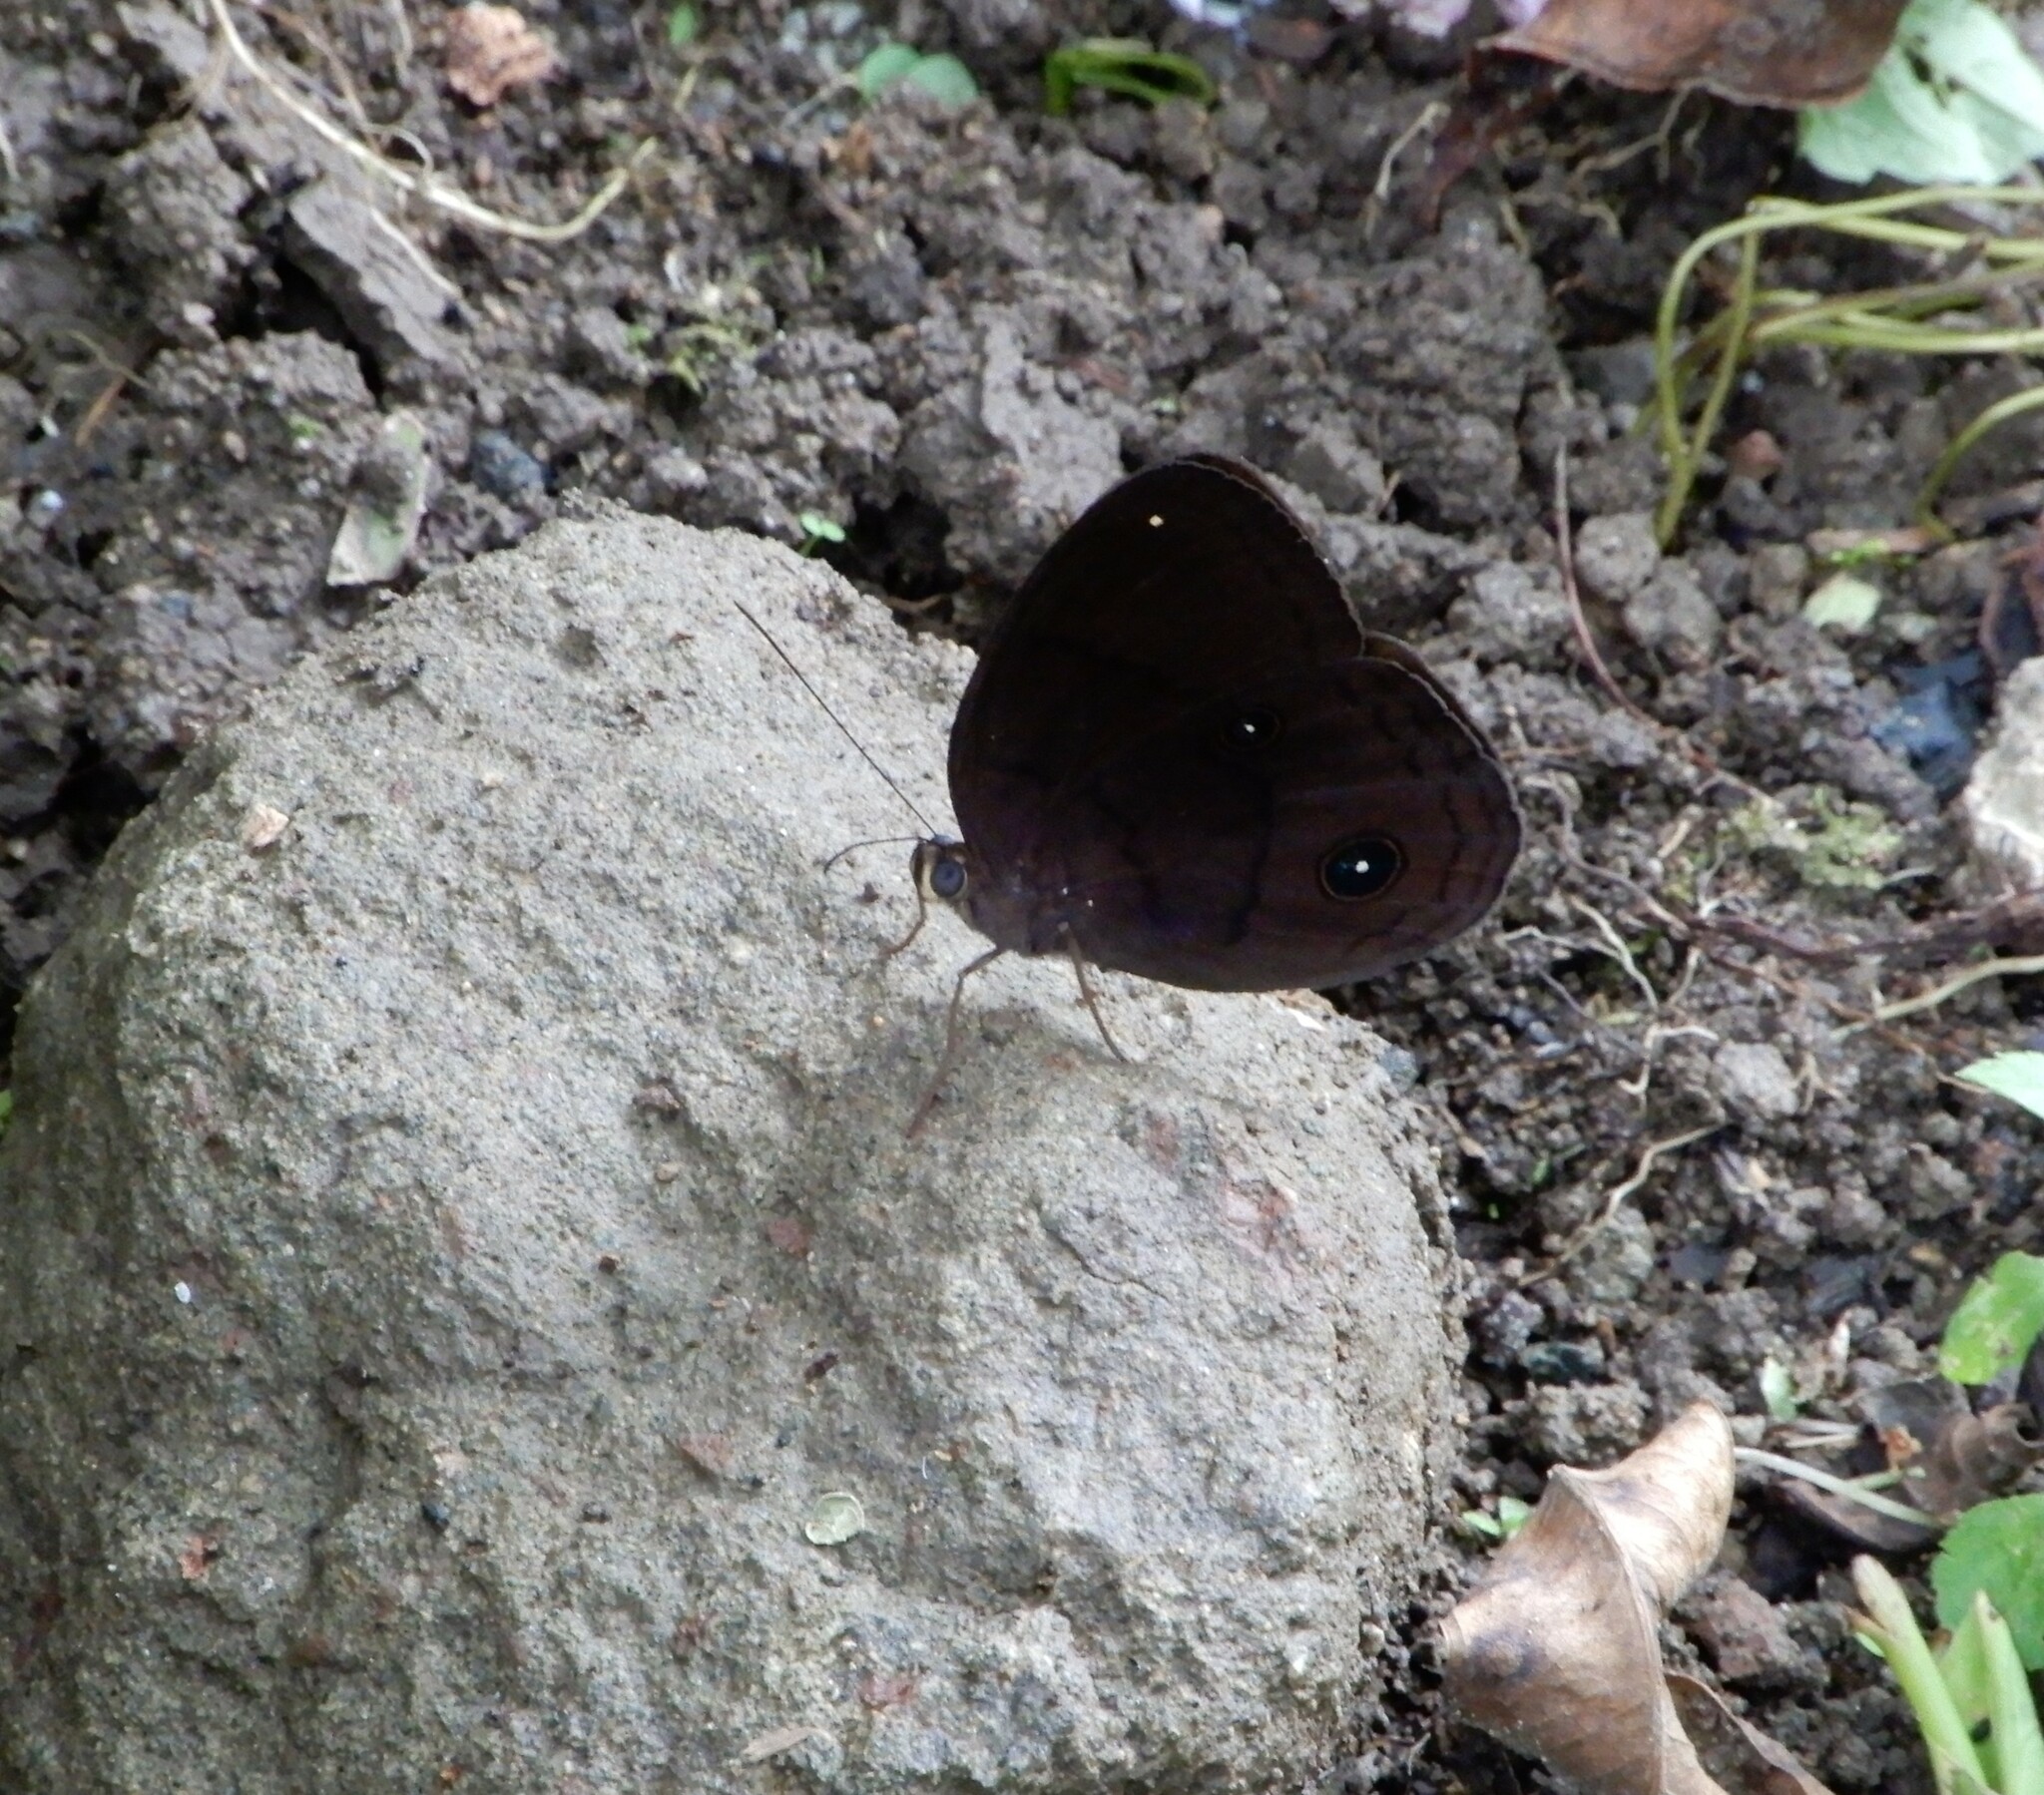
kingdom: Animalia
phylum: Arthropoda
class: Insecta
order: Lepidoptera
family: Nymphalidae
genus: Faunis
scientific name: Faunis phaon
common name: Faun butterfly
